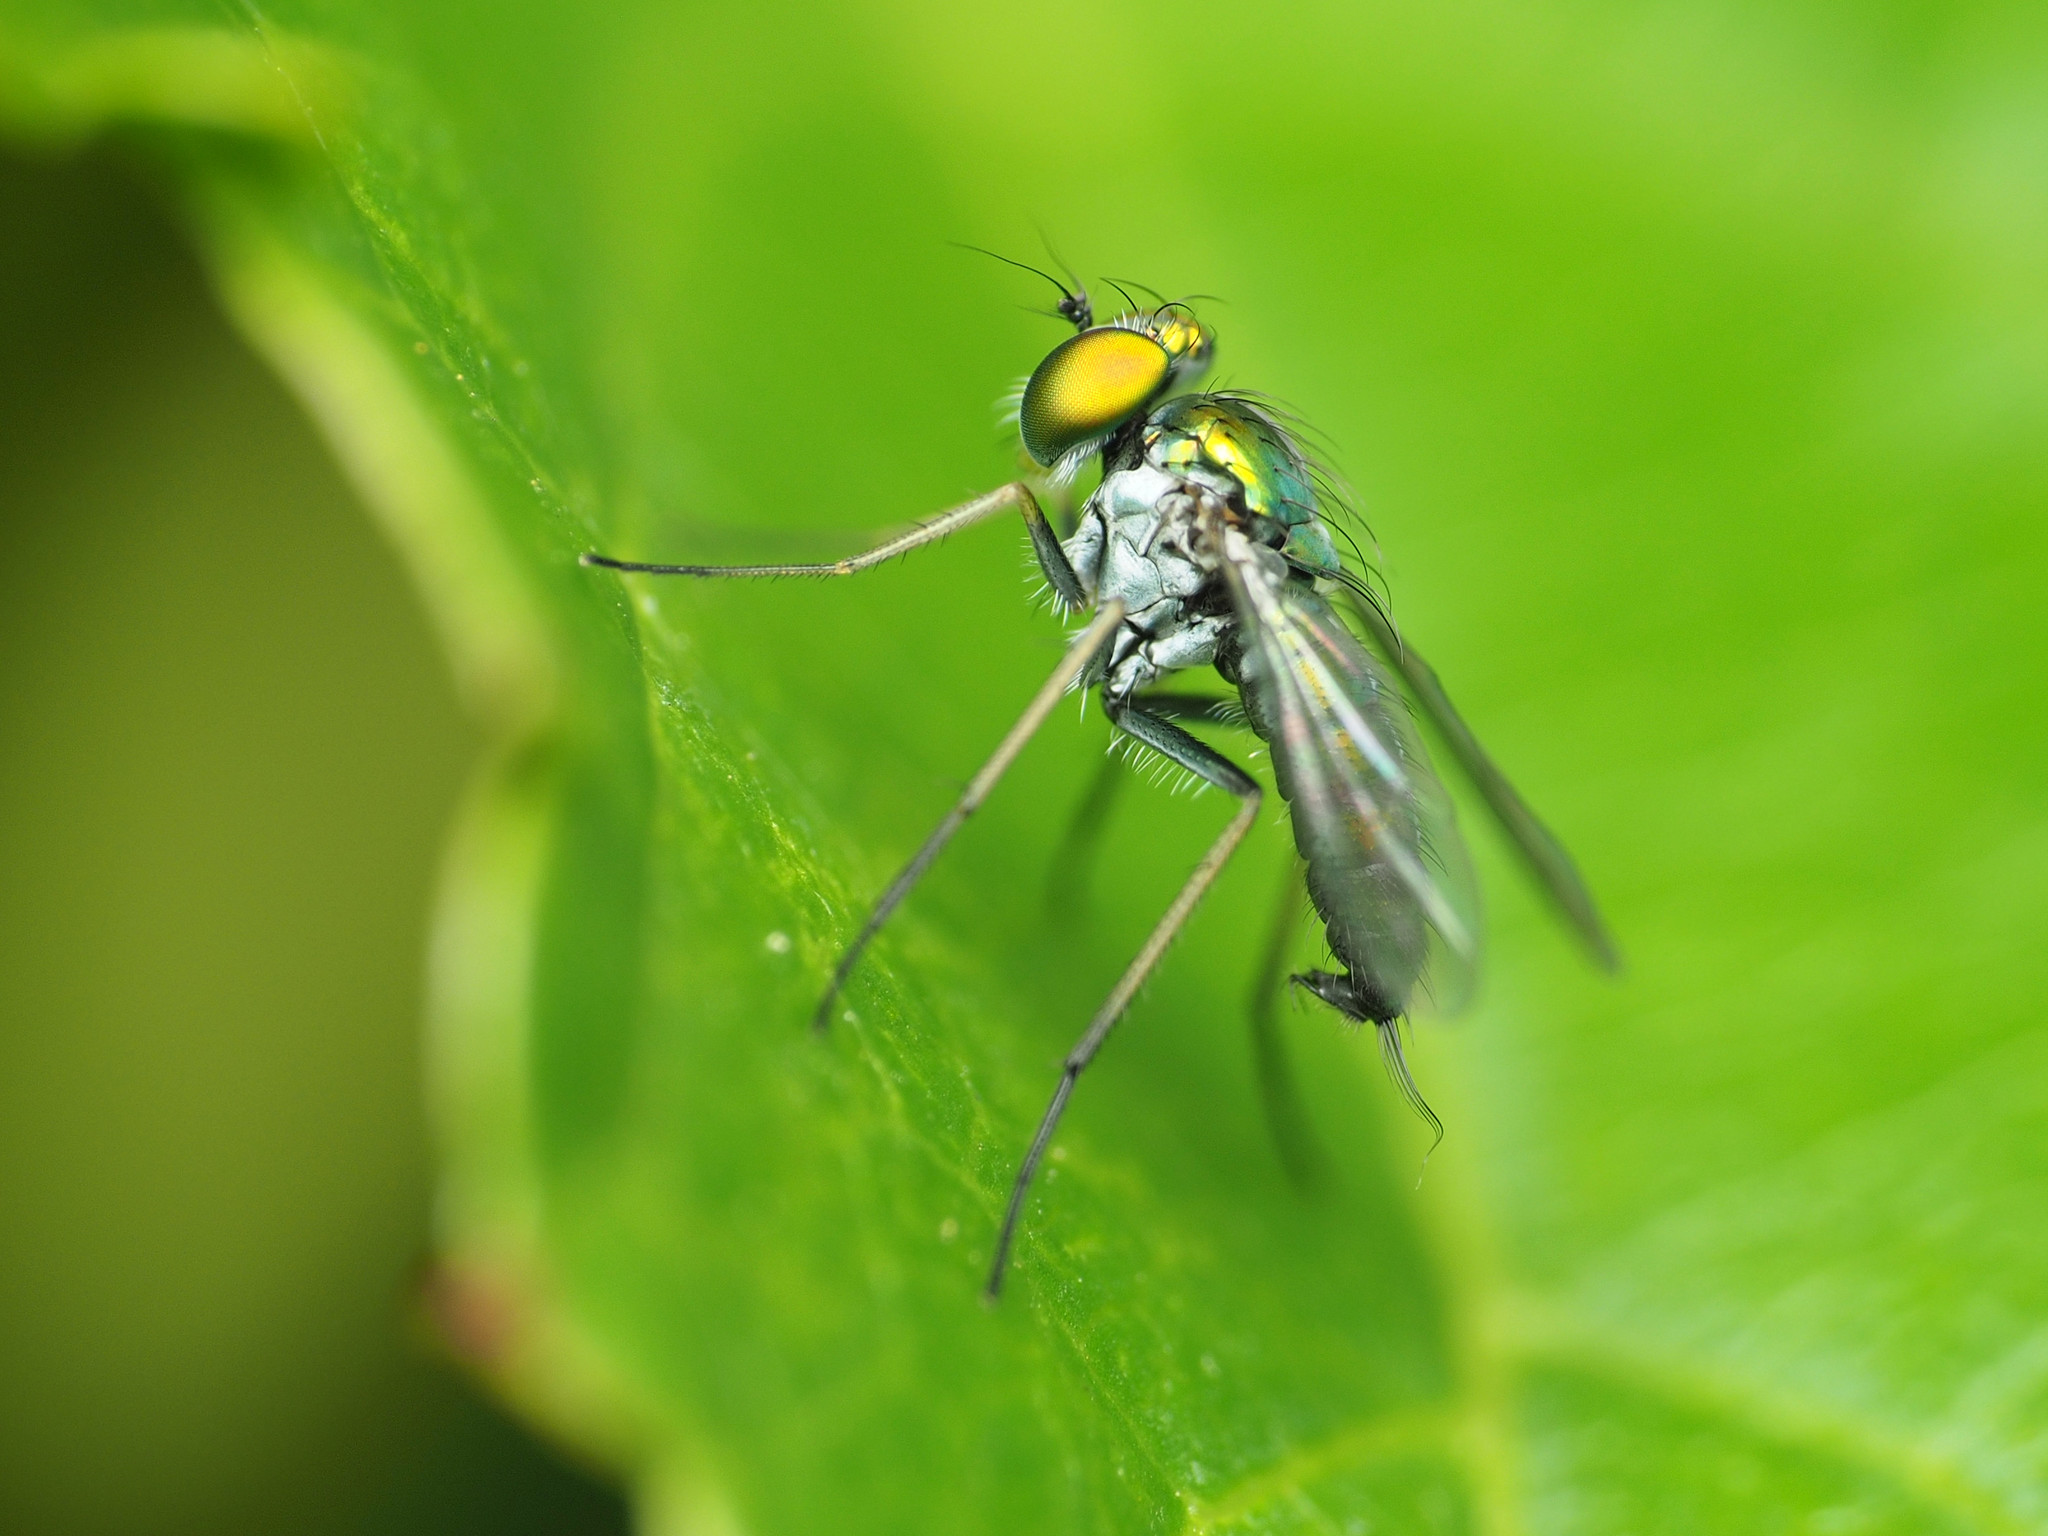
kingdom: Animalia
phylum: Arthropoda
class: Insecta
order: Diptera
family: Dolichopodidae
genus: Condylostylus
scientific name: Condylostylus caudatus
